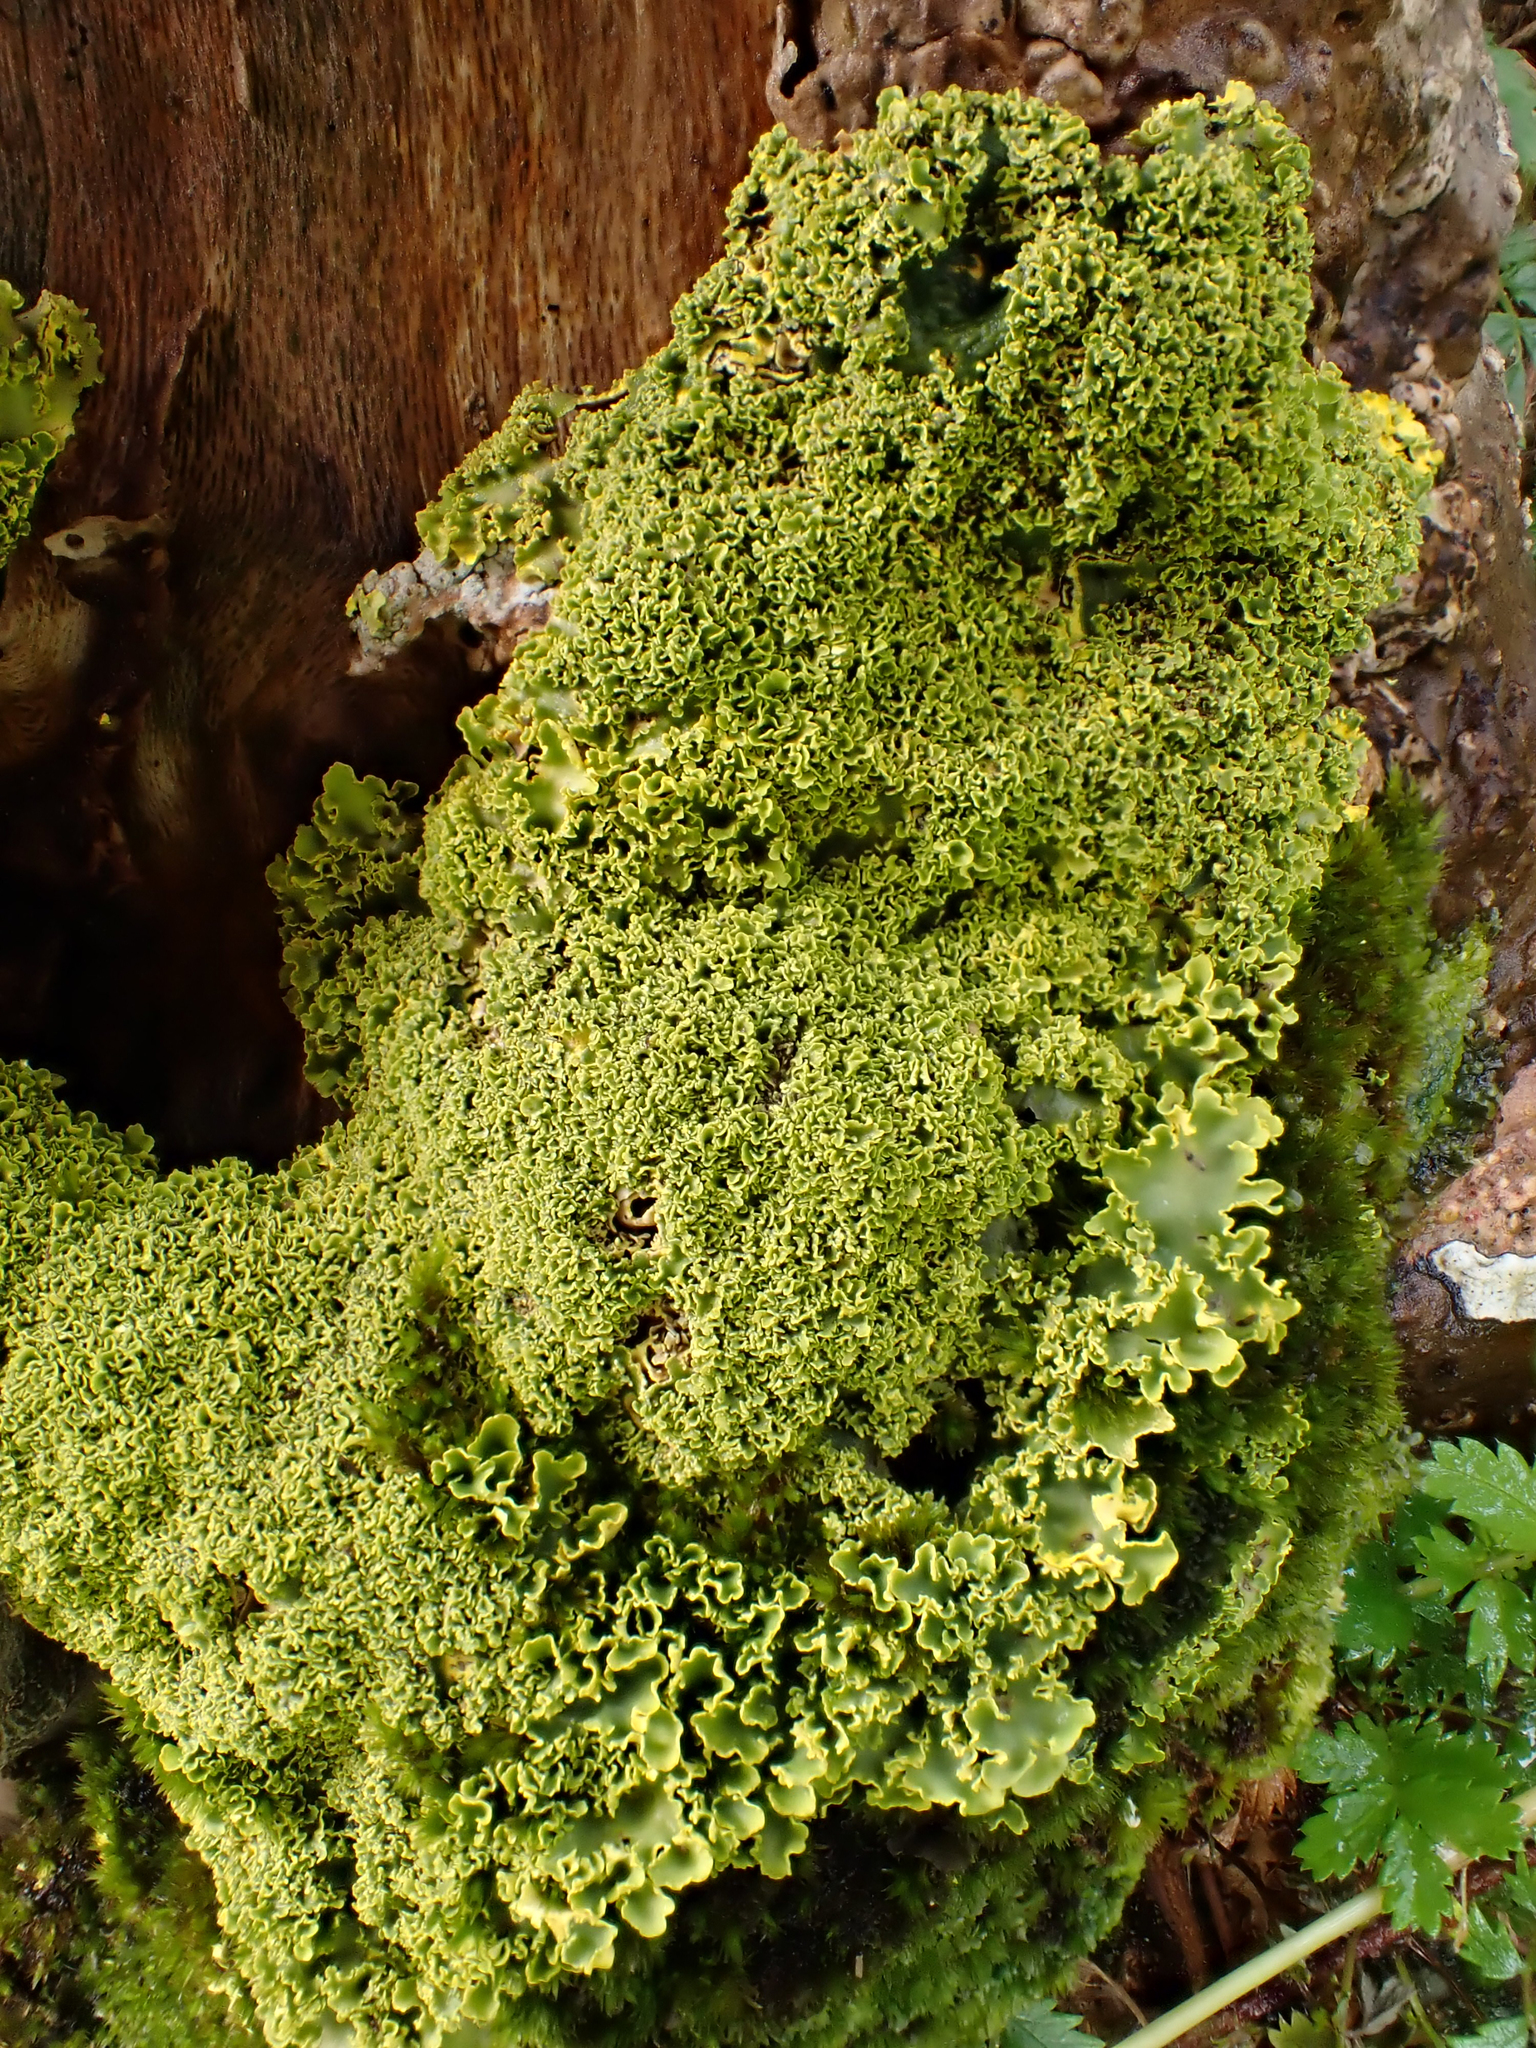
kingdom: Fungi
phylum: Ascomycota
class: Lecanoromycetes
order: Peltigerales
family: Lobariaceae
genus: Podostictina
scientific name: Podostictina pickeringii
